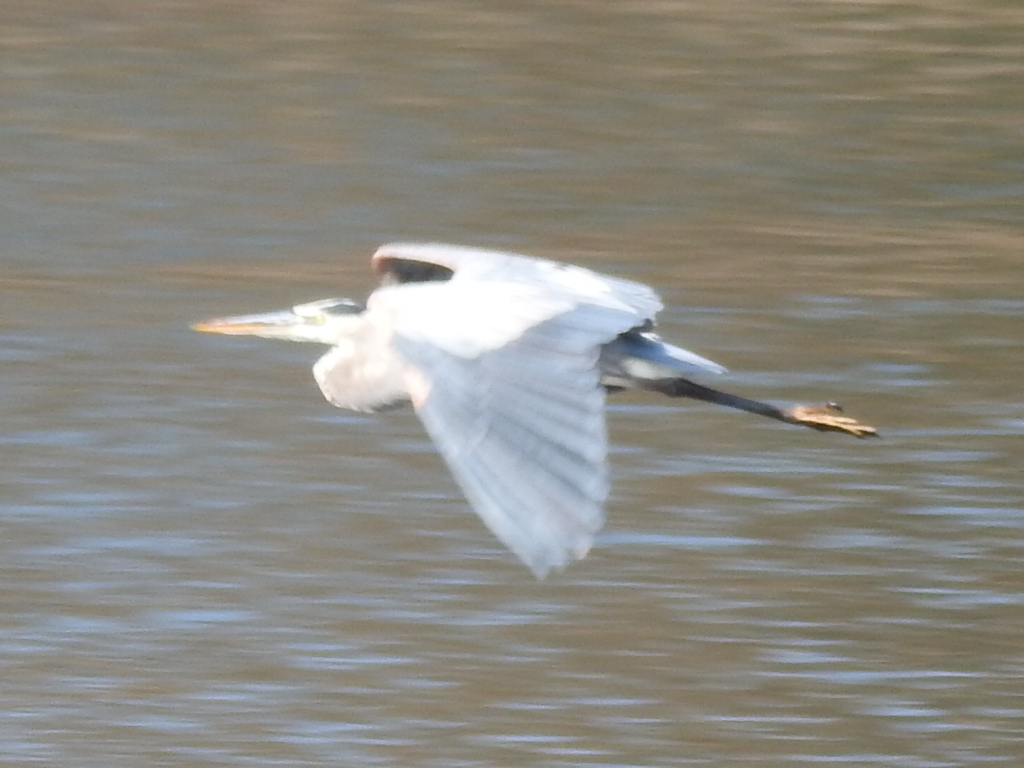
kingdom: Animalia
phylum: Chordata
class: Aves
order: Pelecaniformes
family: Ardeidae
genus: Ardea
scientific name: Ardea herodias
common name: Great blue heron
